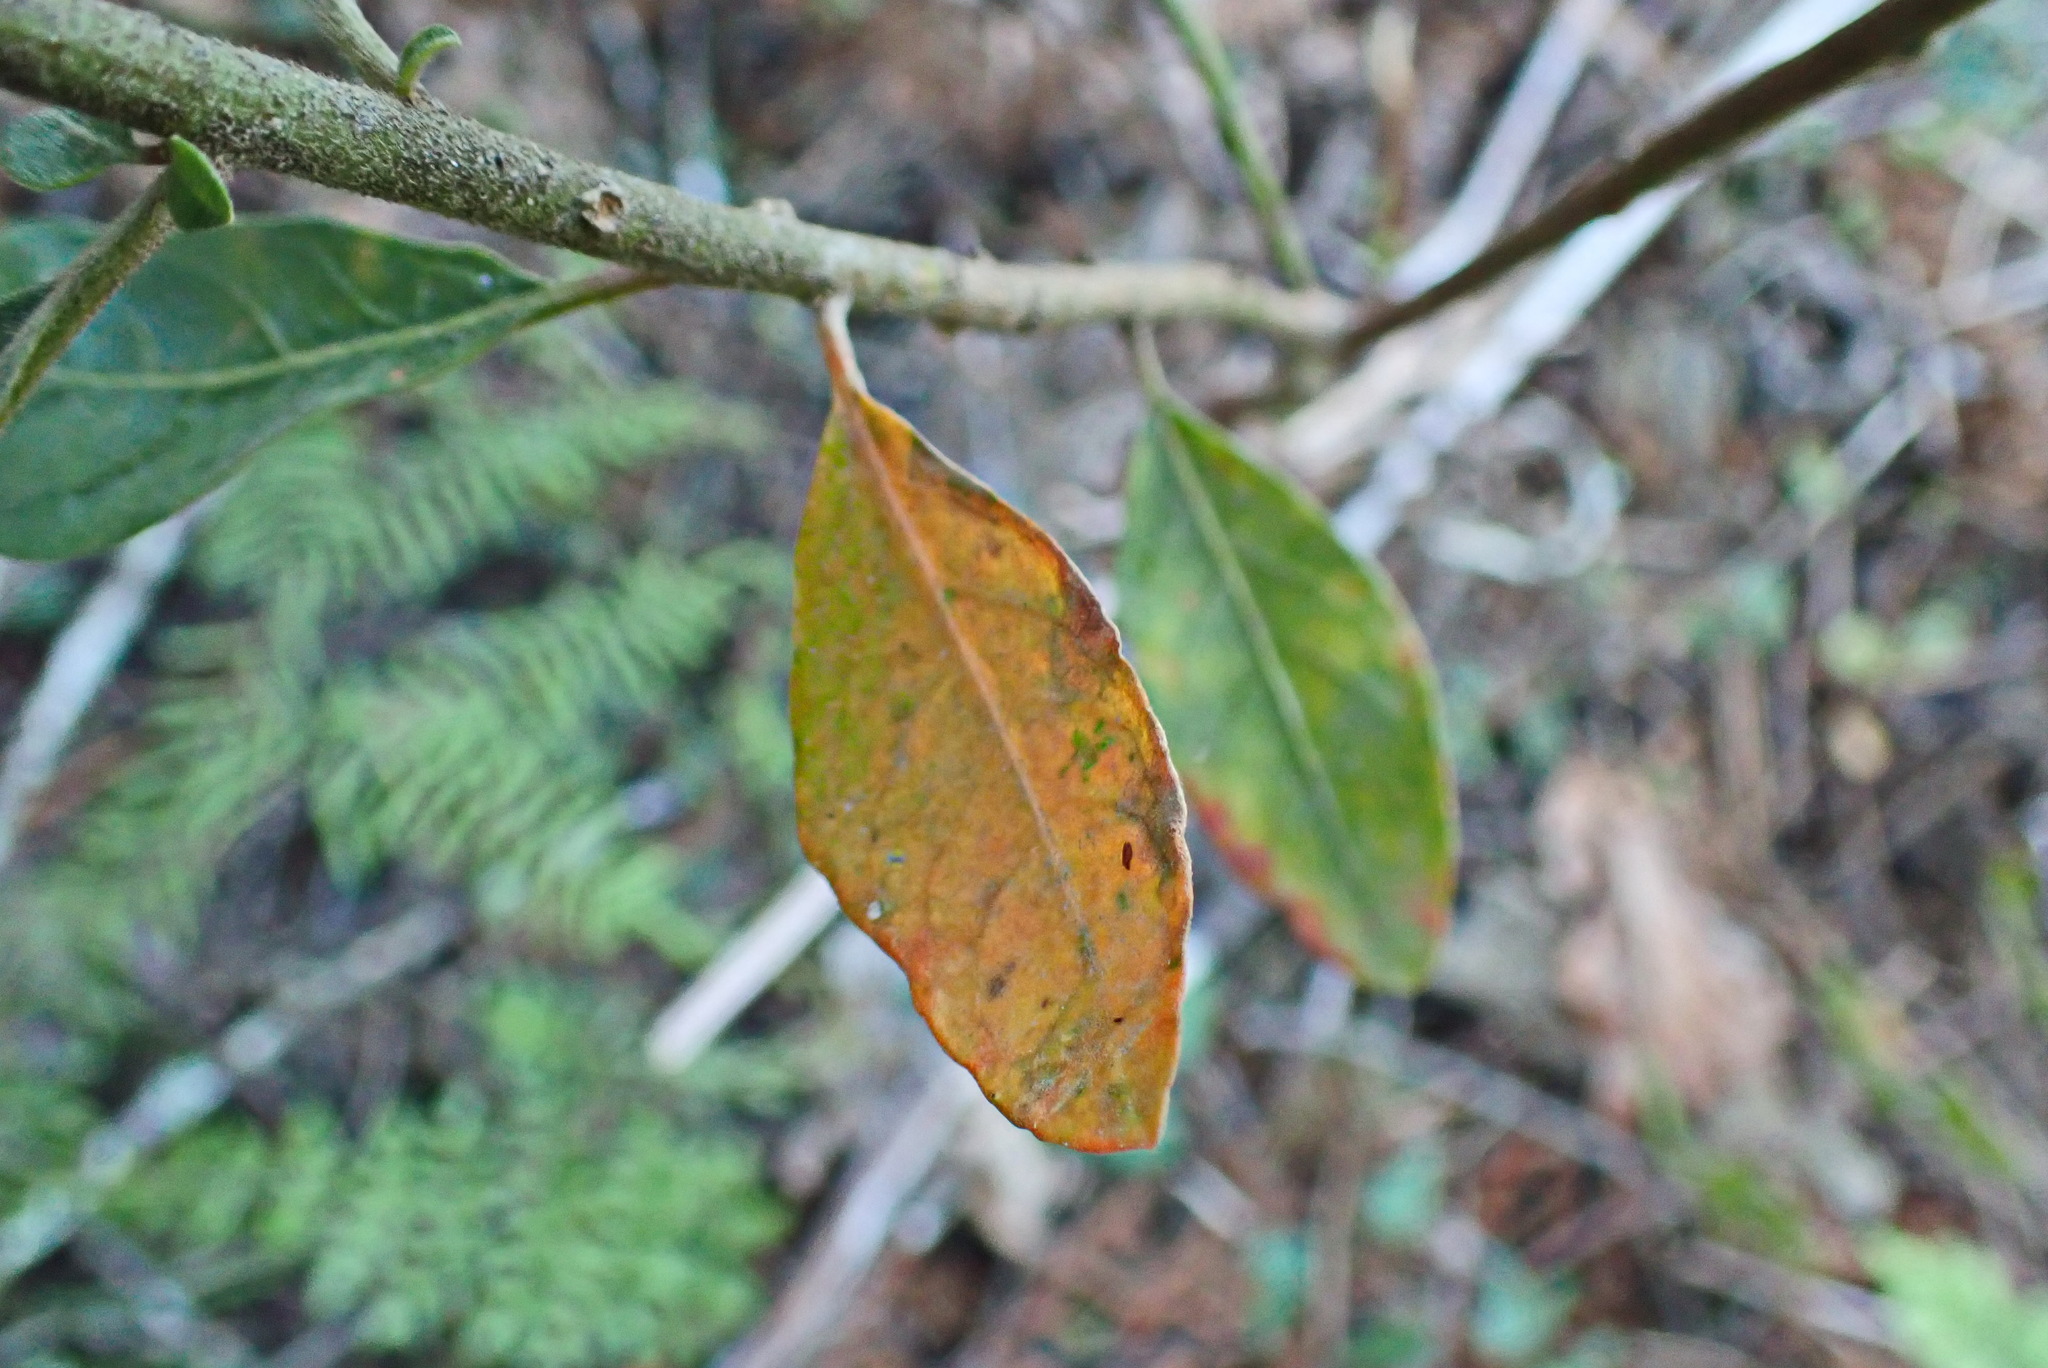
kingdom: Plantae
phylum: Tracheophyta
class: Magnoliopsida
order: Malpighiales
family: Peraceae
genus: Clutia
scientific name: Clutia pulchella
